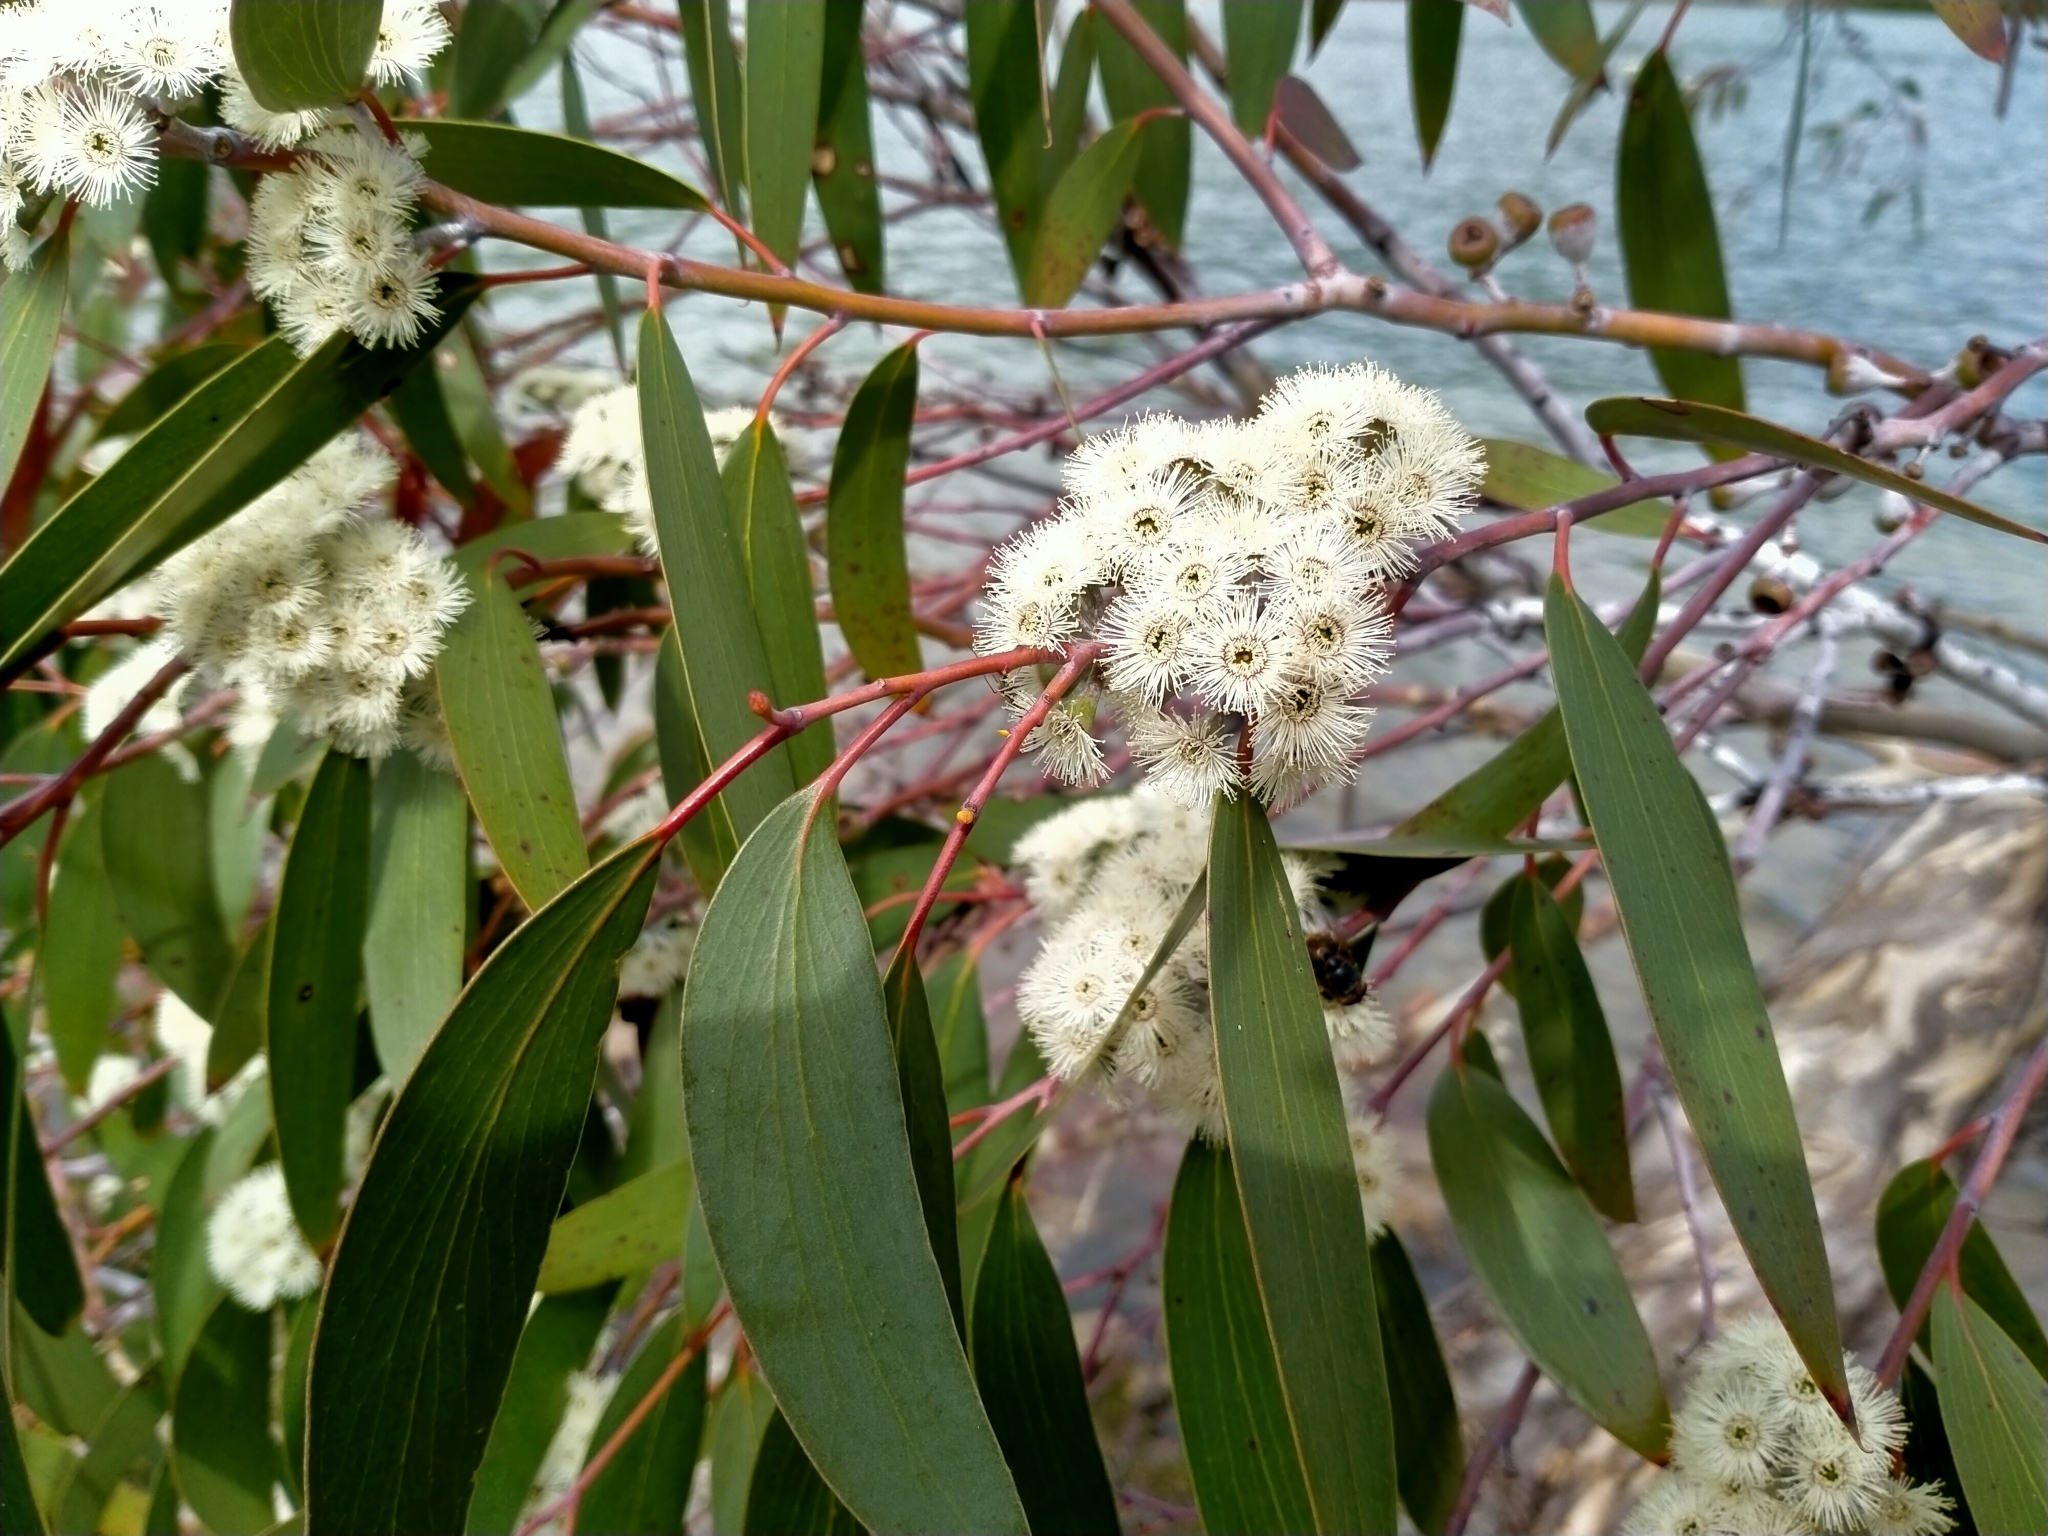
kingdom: Plantae
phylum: Tracheophyta
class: Magnoliopsida
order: Myrtales
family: Myrtaceae
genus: Eucalyptus
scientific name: Eucalyptus pauciflora
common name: Snow gum
